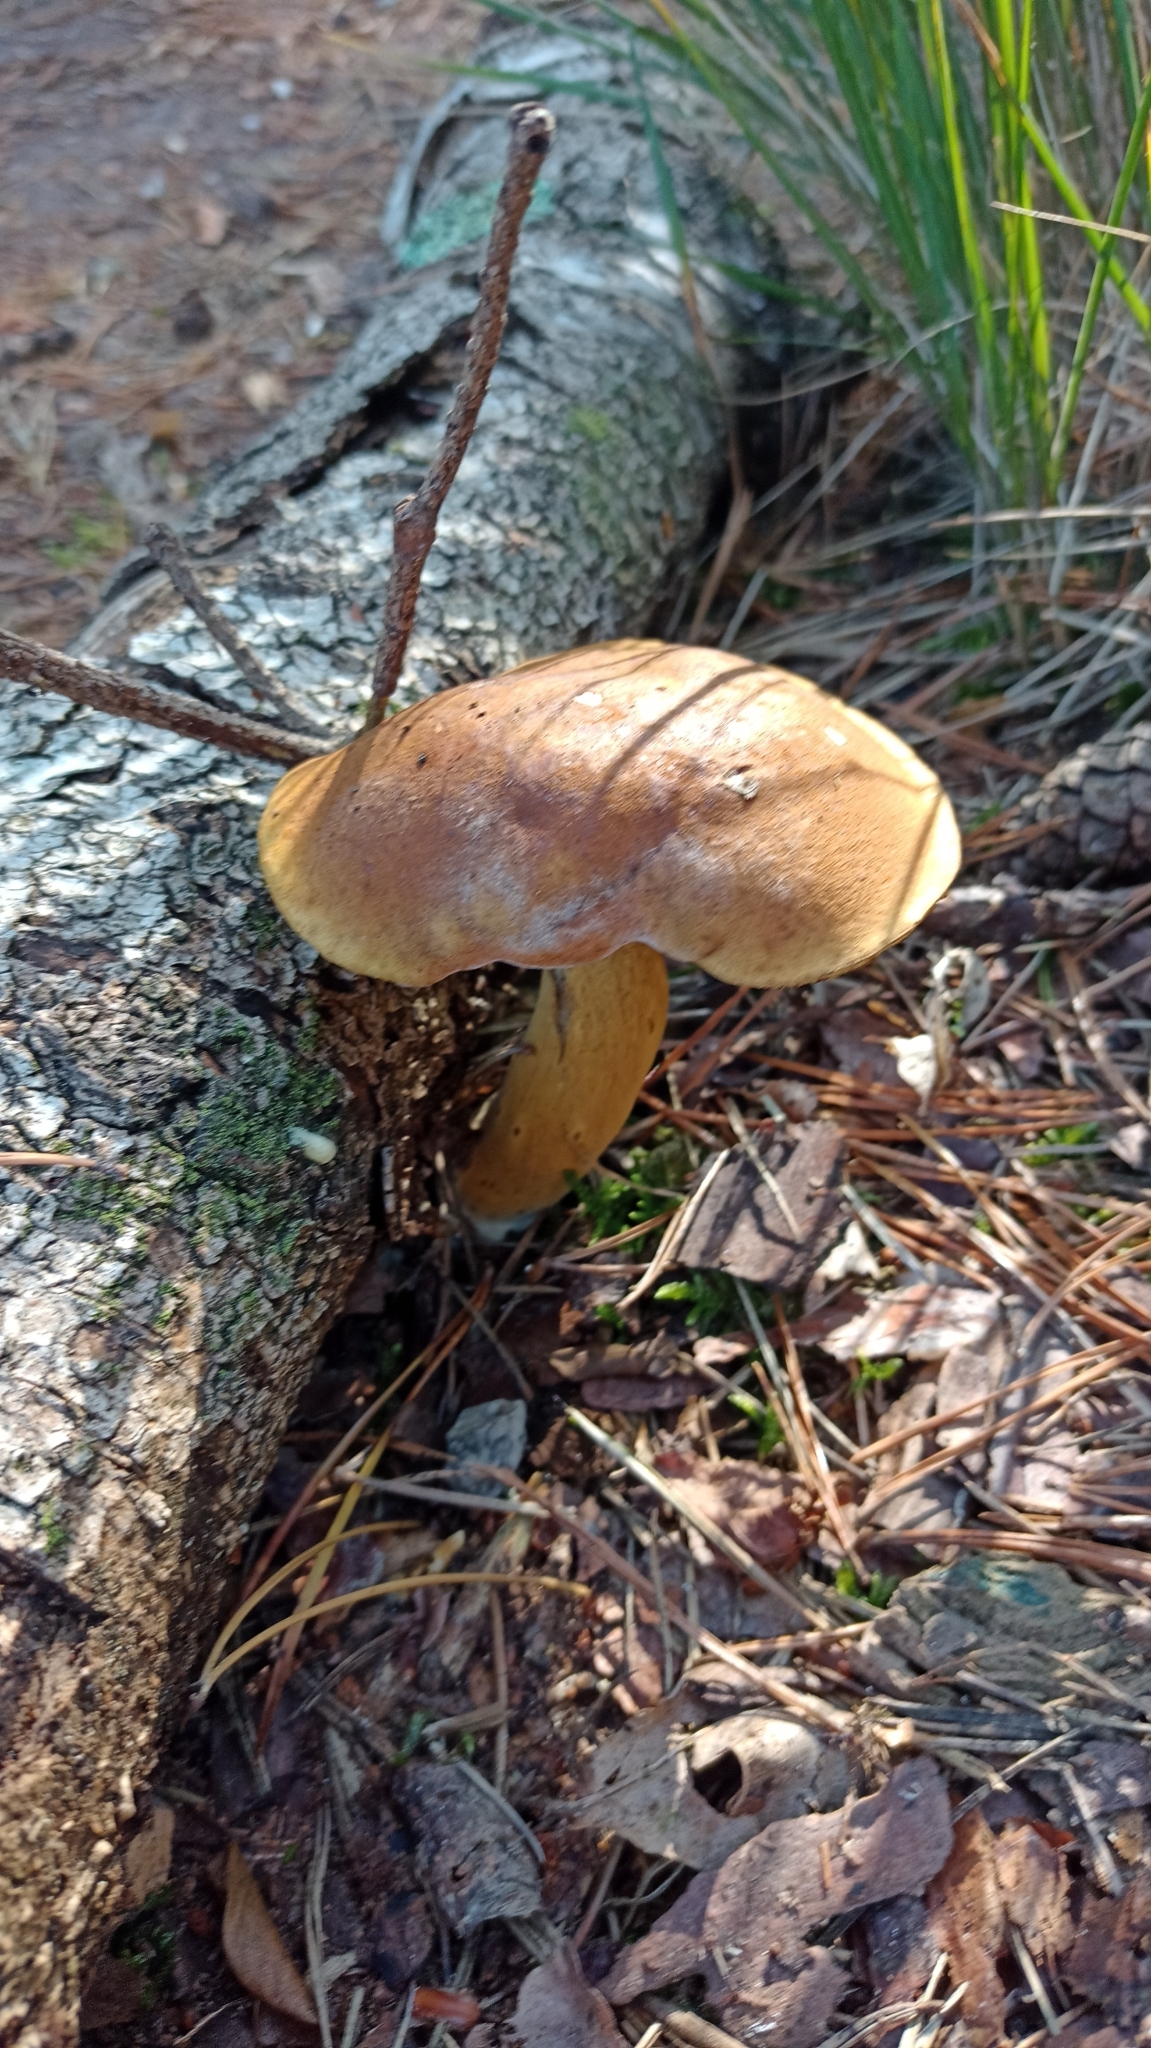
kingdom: Fungi
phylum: Basidiomycota
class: Agaricomycetes
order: Boletales
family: Boletaceae
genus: Imleria
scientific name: Imleria badia
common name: Bay bolete
